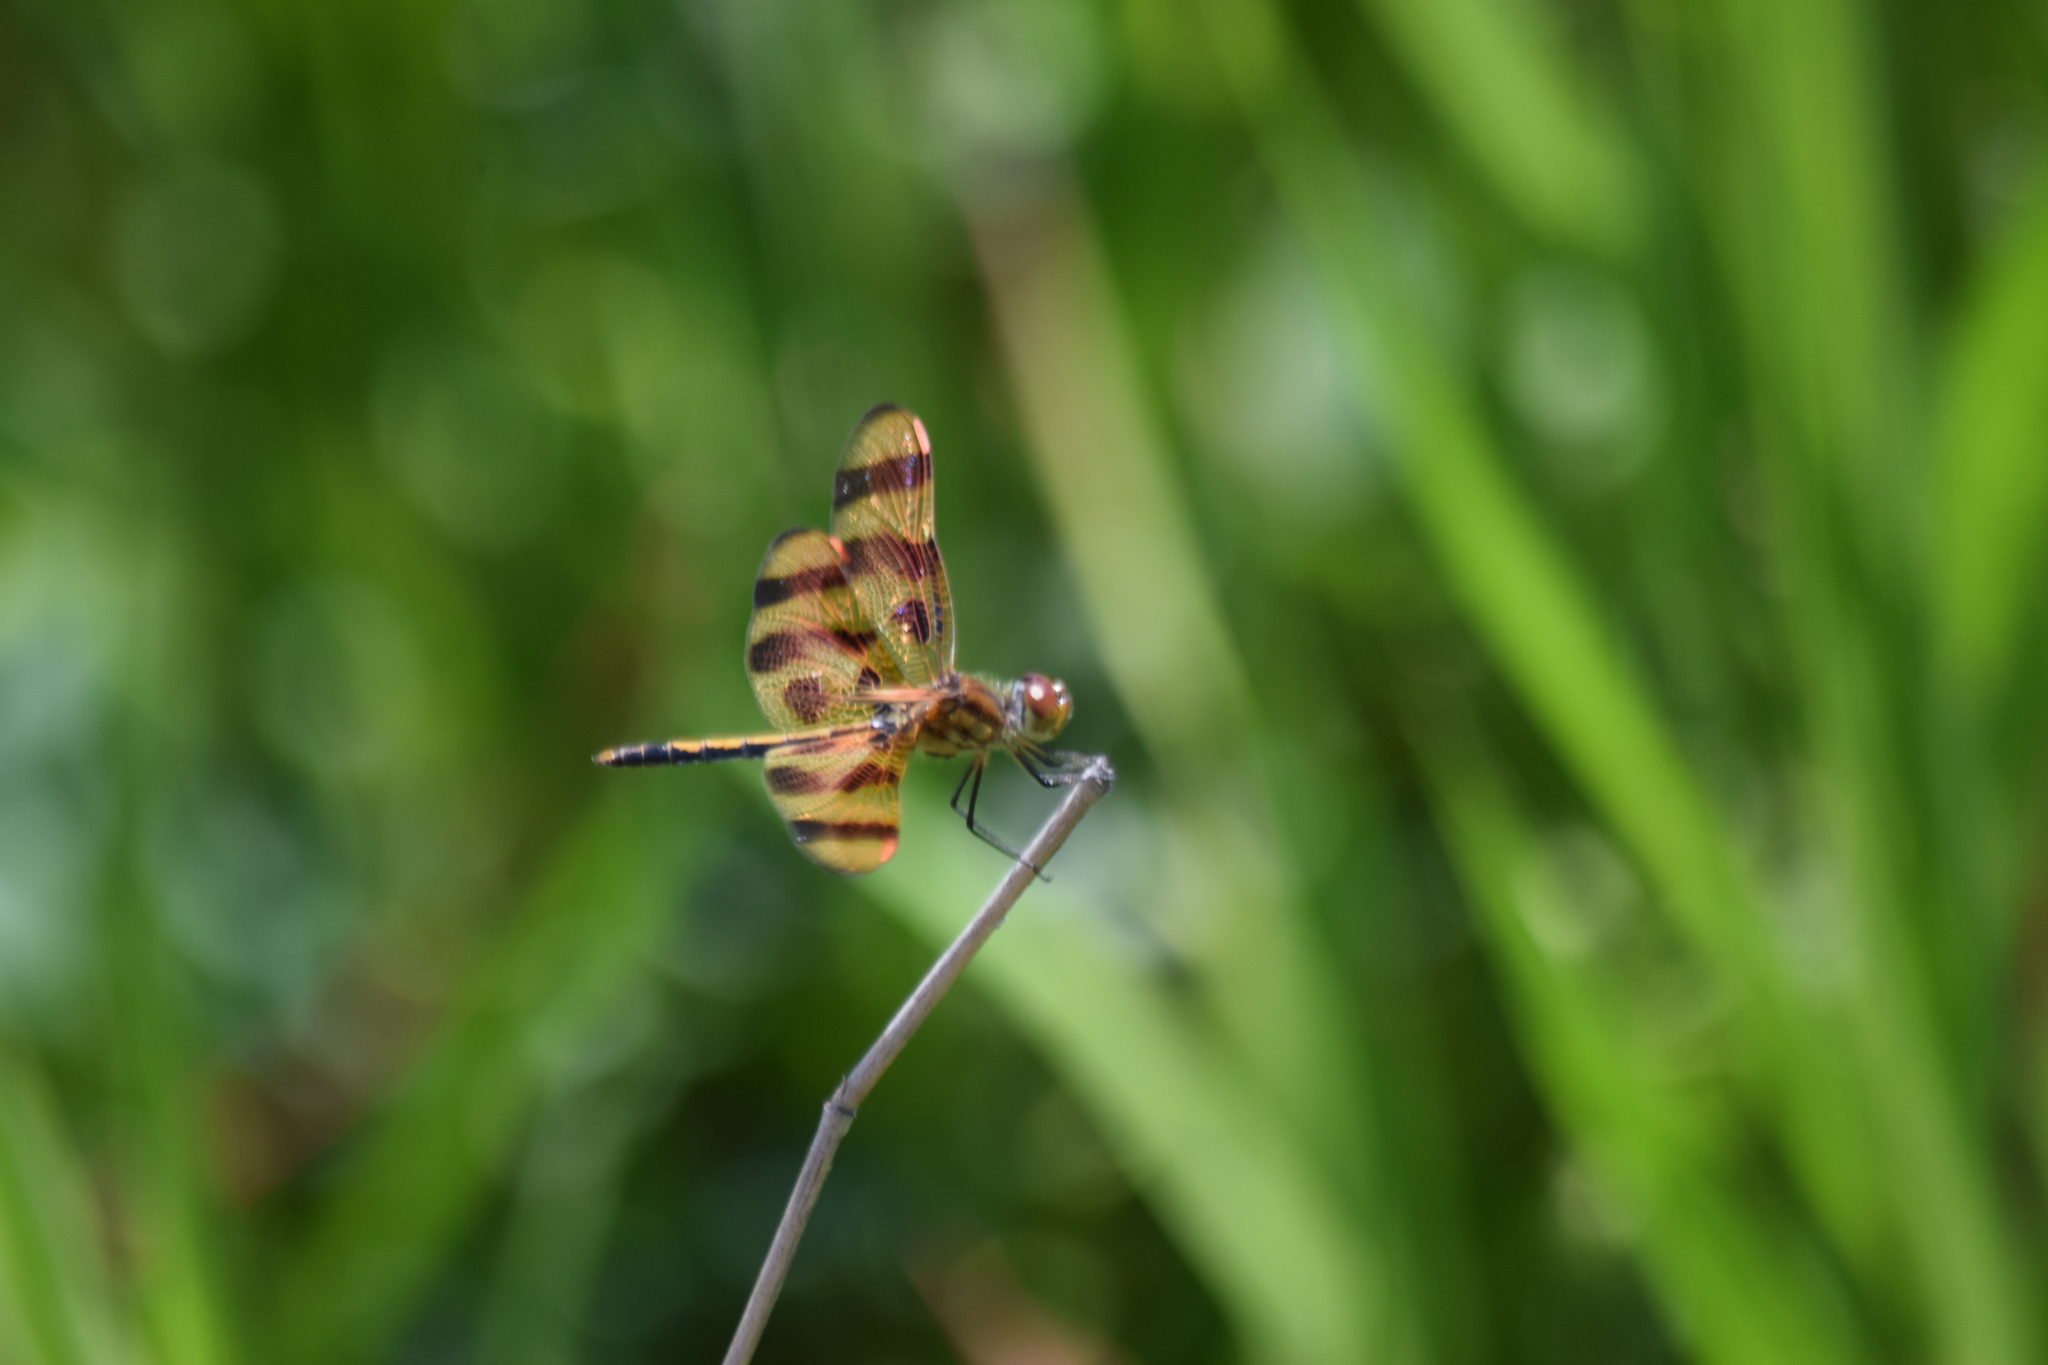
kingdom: Animalia
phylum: Arthropoda
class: Insecta
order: Odonata
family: Libellulidae
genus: Celithemis
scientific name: Celithemis eponina
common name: Halloween pennant
